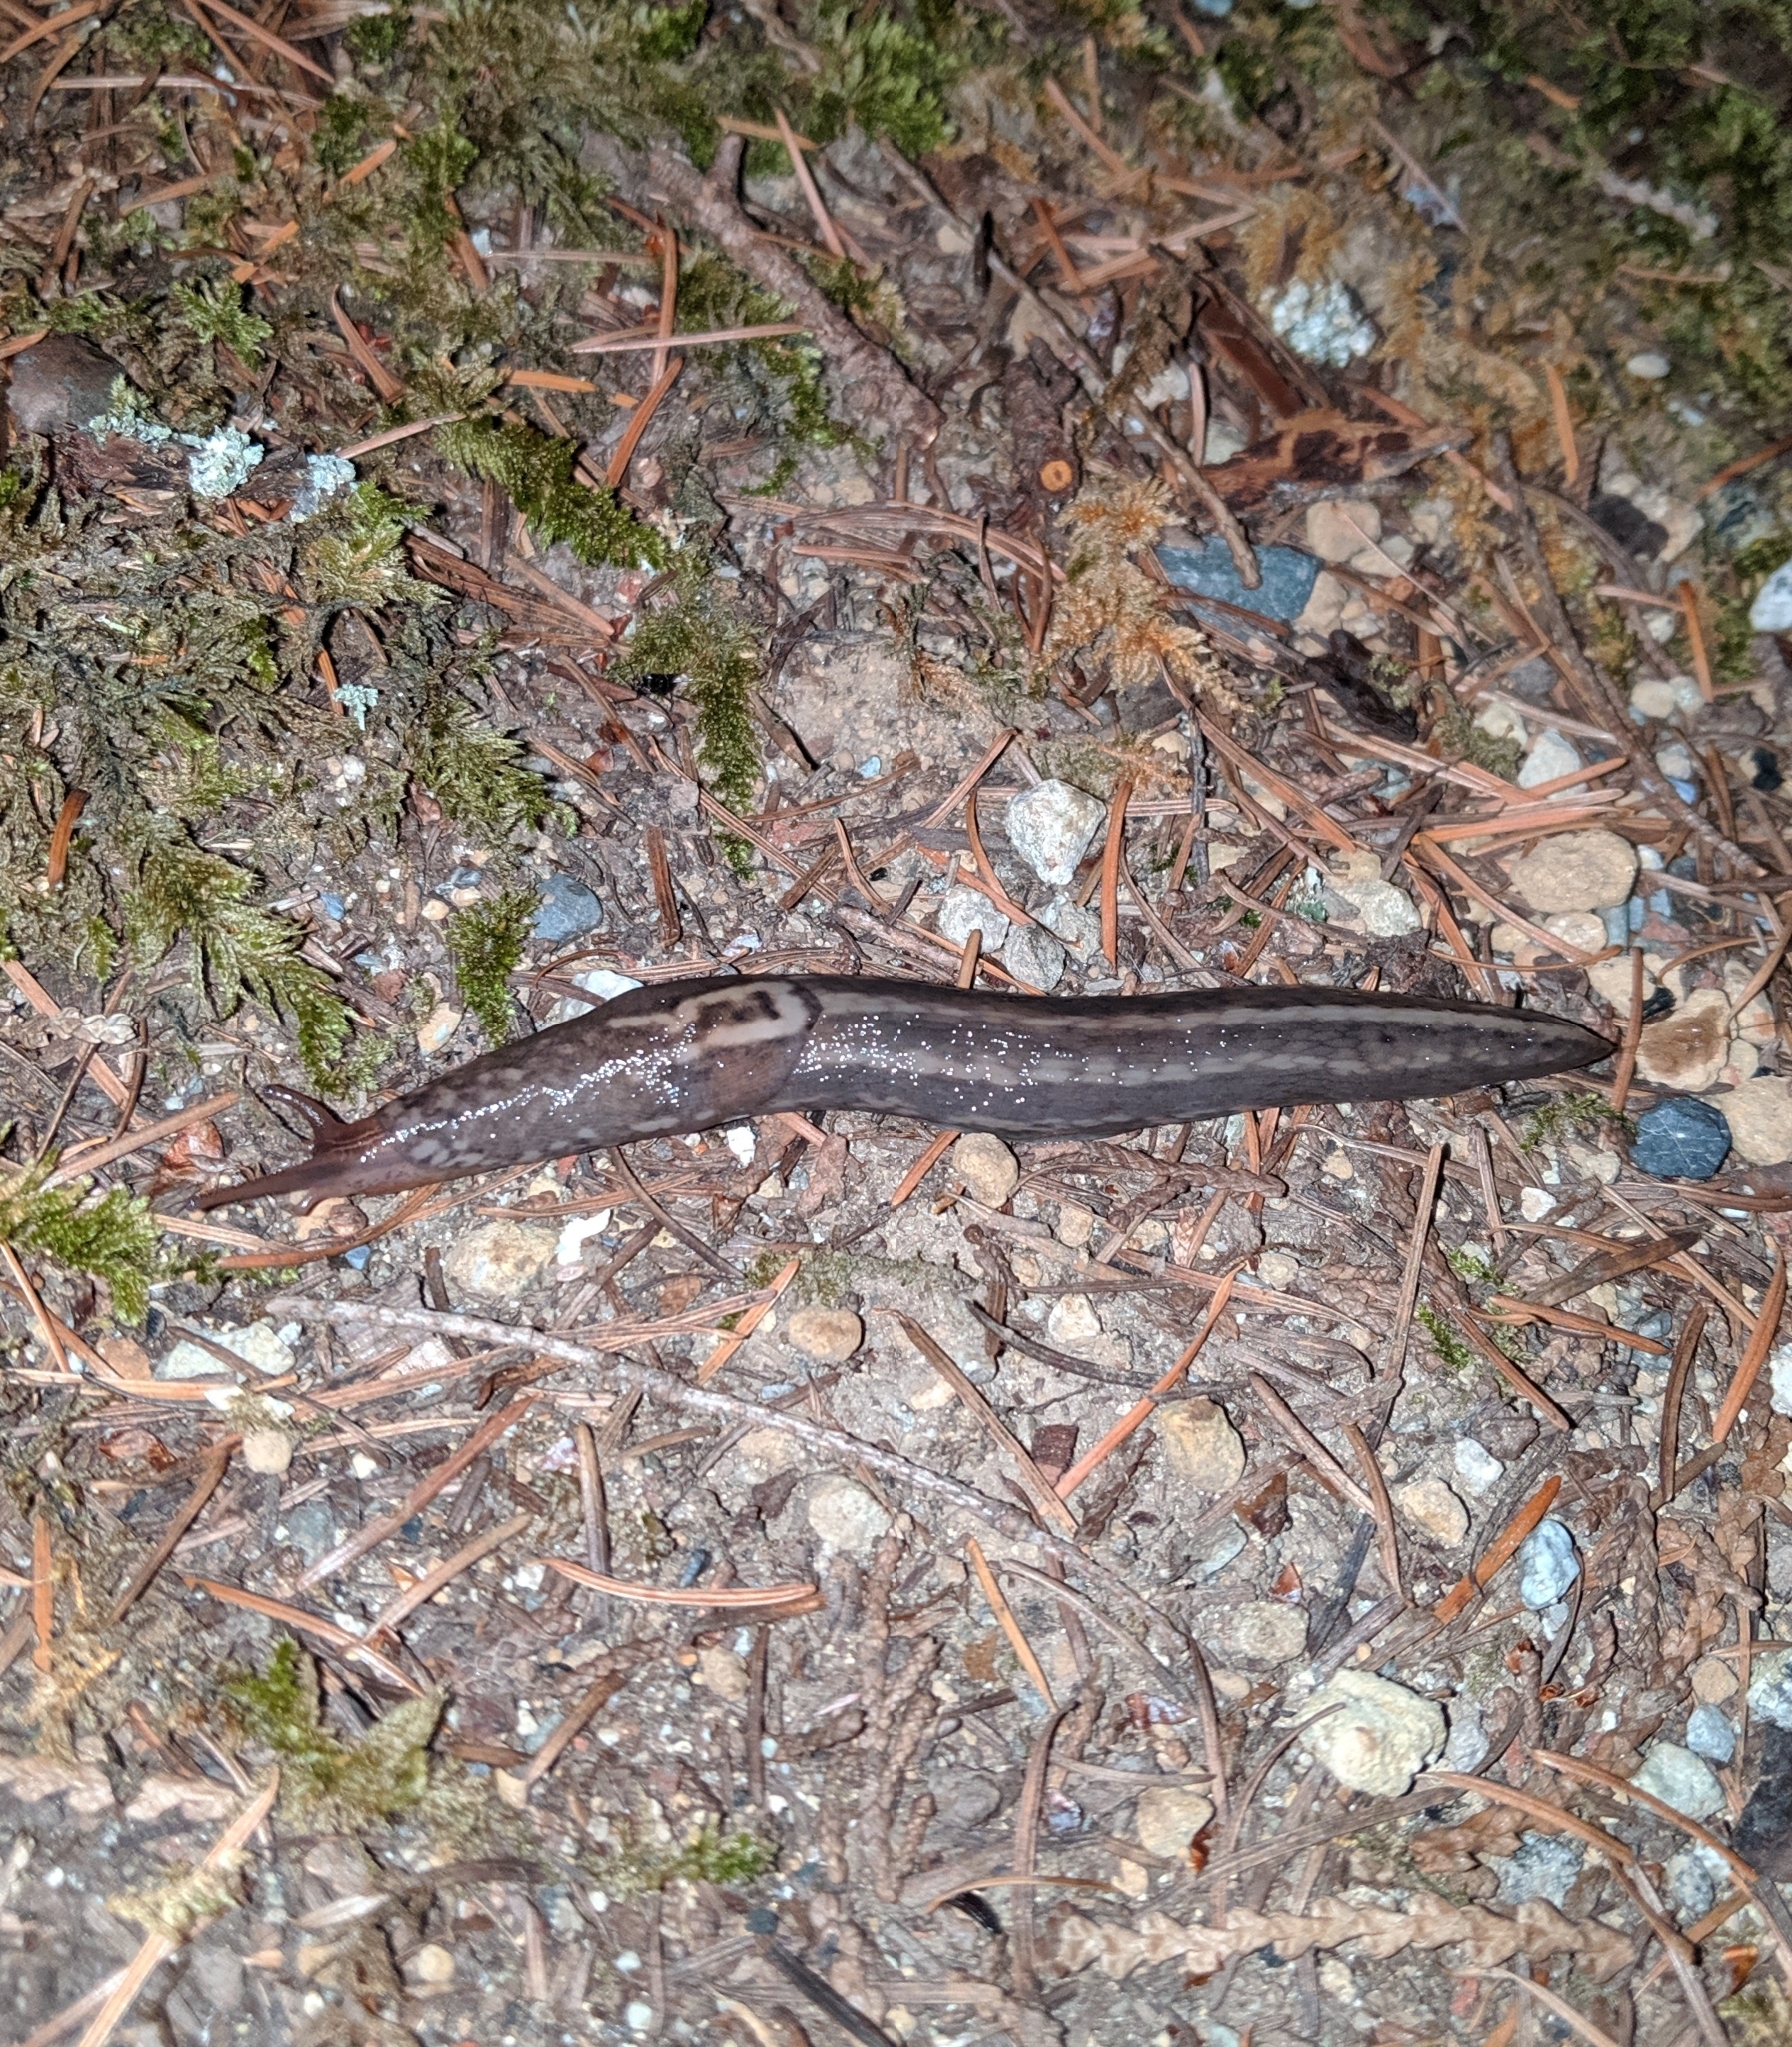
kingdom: Animalia
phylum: Mollusca
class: Gastropoda
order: Stylommatophora
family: Limacidae
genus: Limax
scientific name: Limax maximus
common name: Great grey slug
